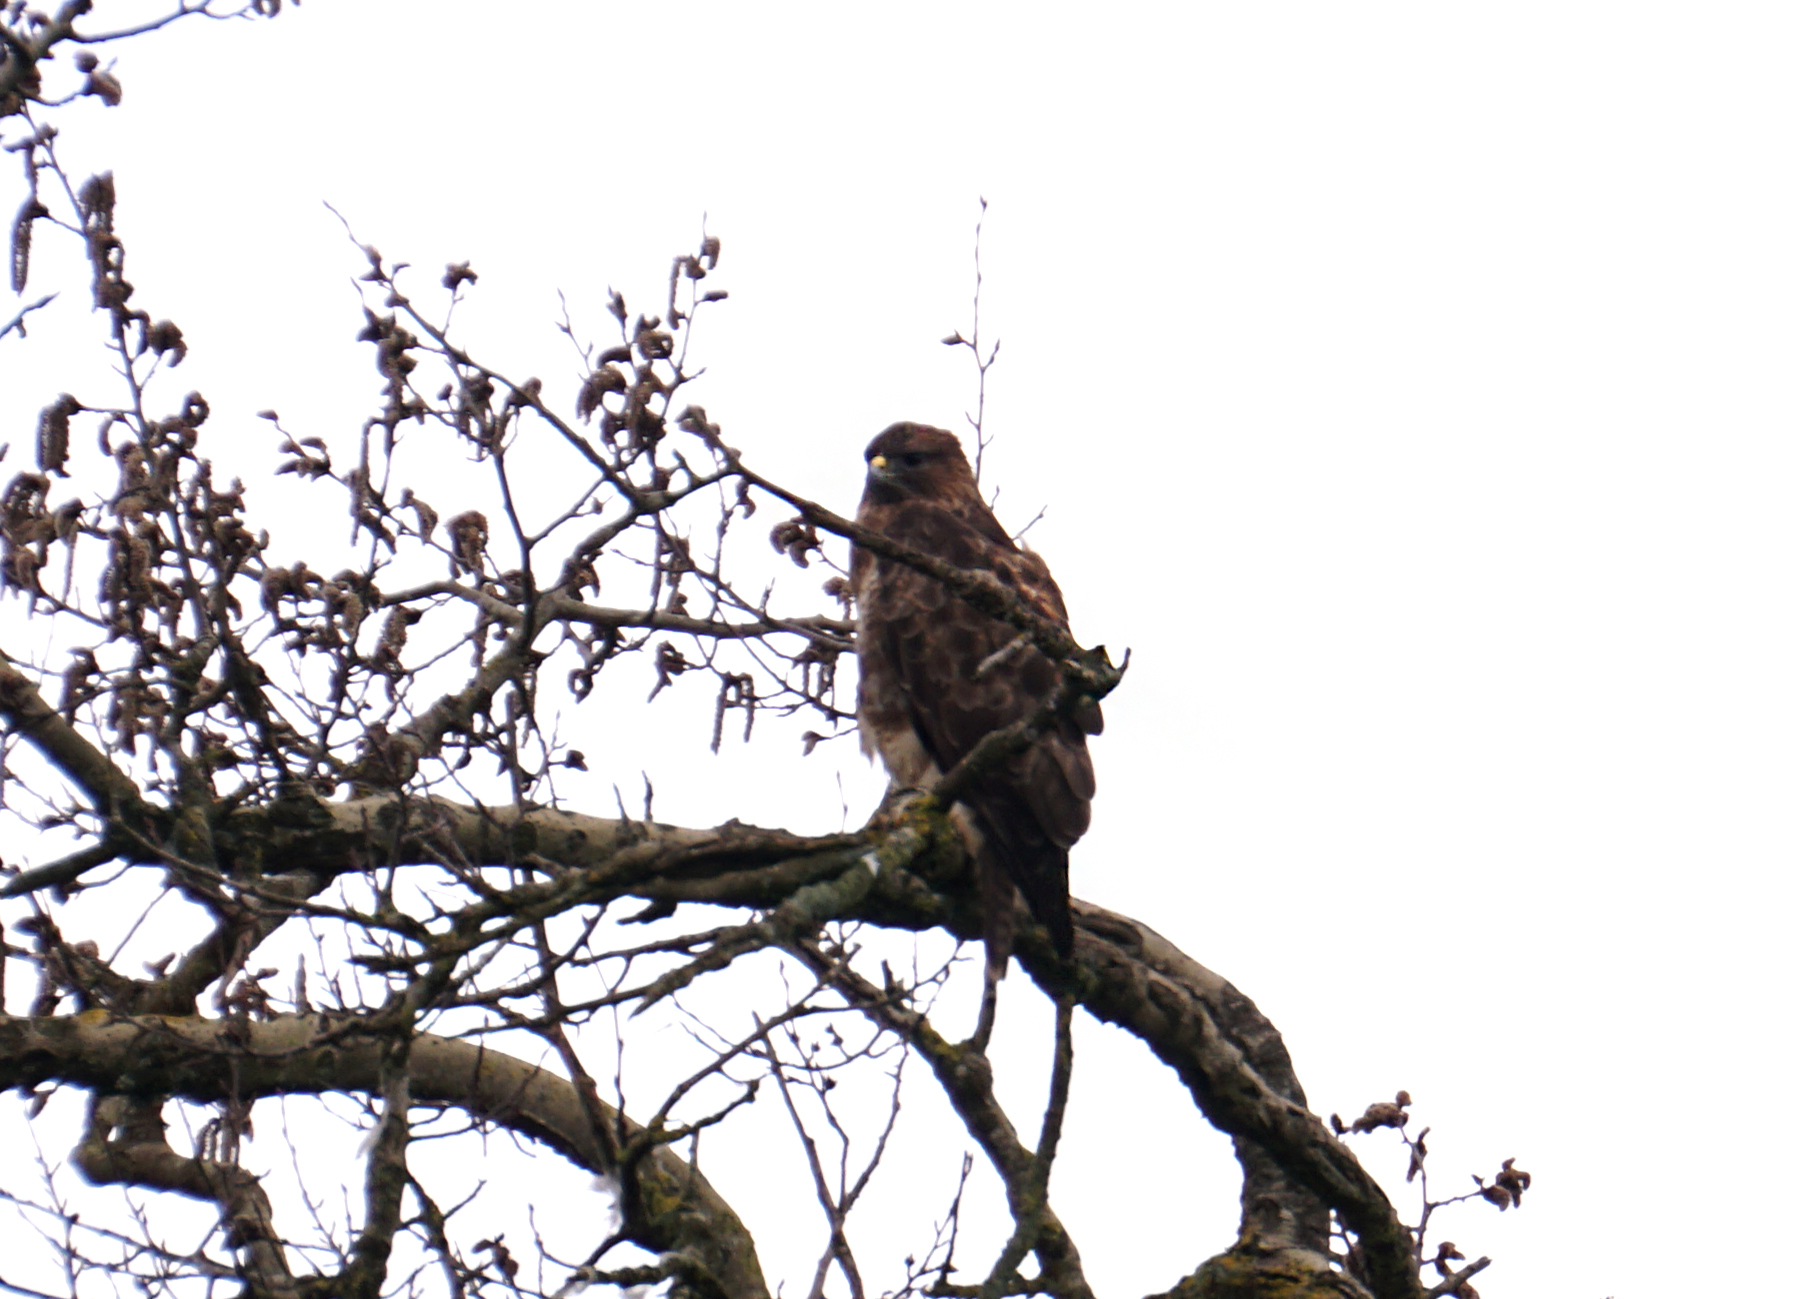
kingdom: Animalia
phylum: Chordata
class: Aves
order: Accipitriformes
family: Accipitridae
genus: Buteo
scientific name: Buteo buteo
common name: Common buzzard
